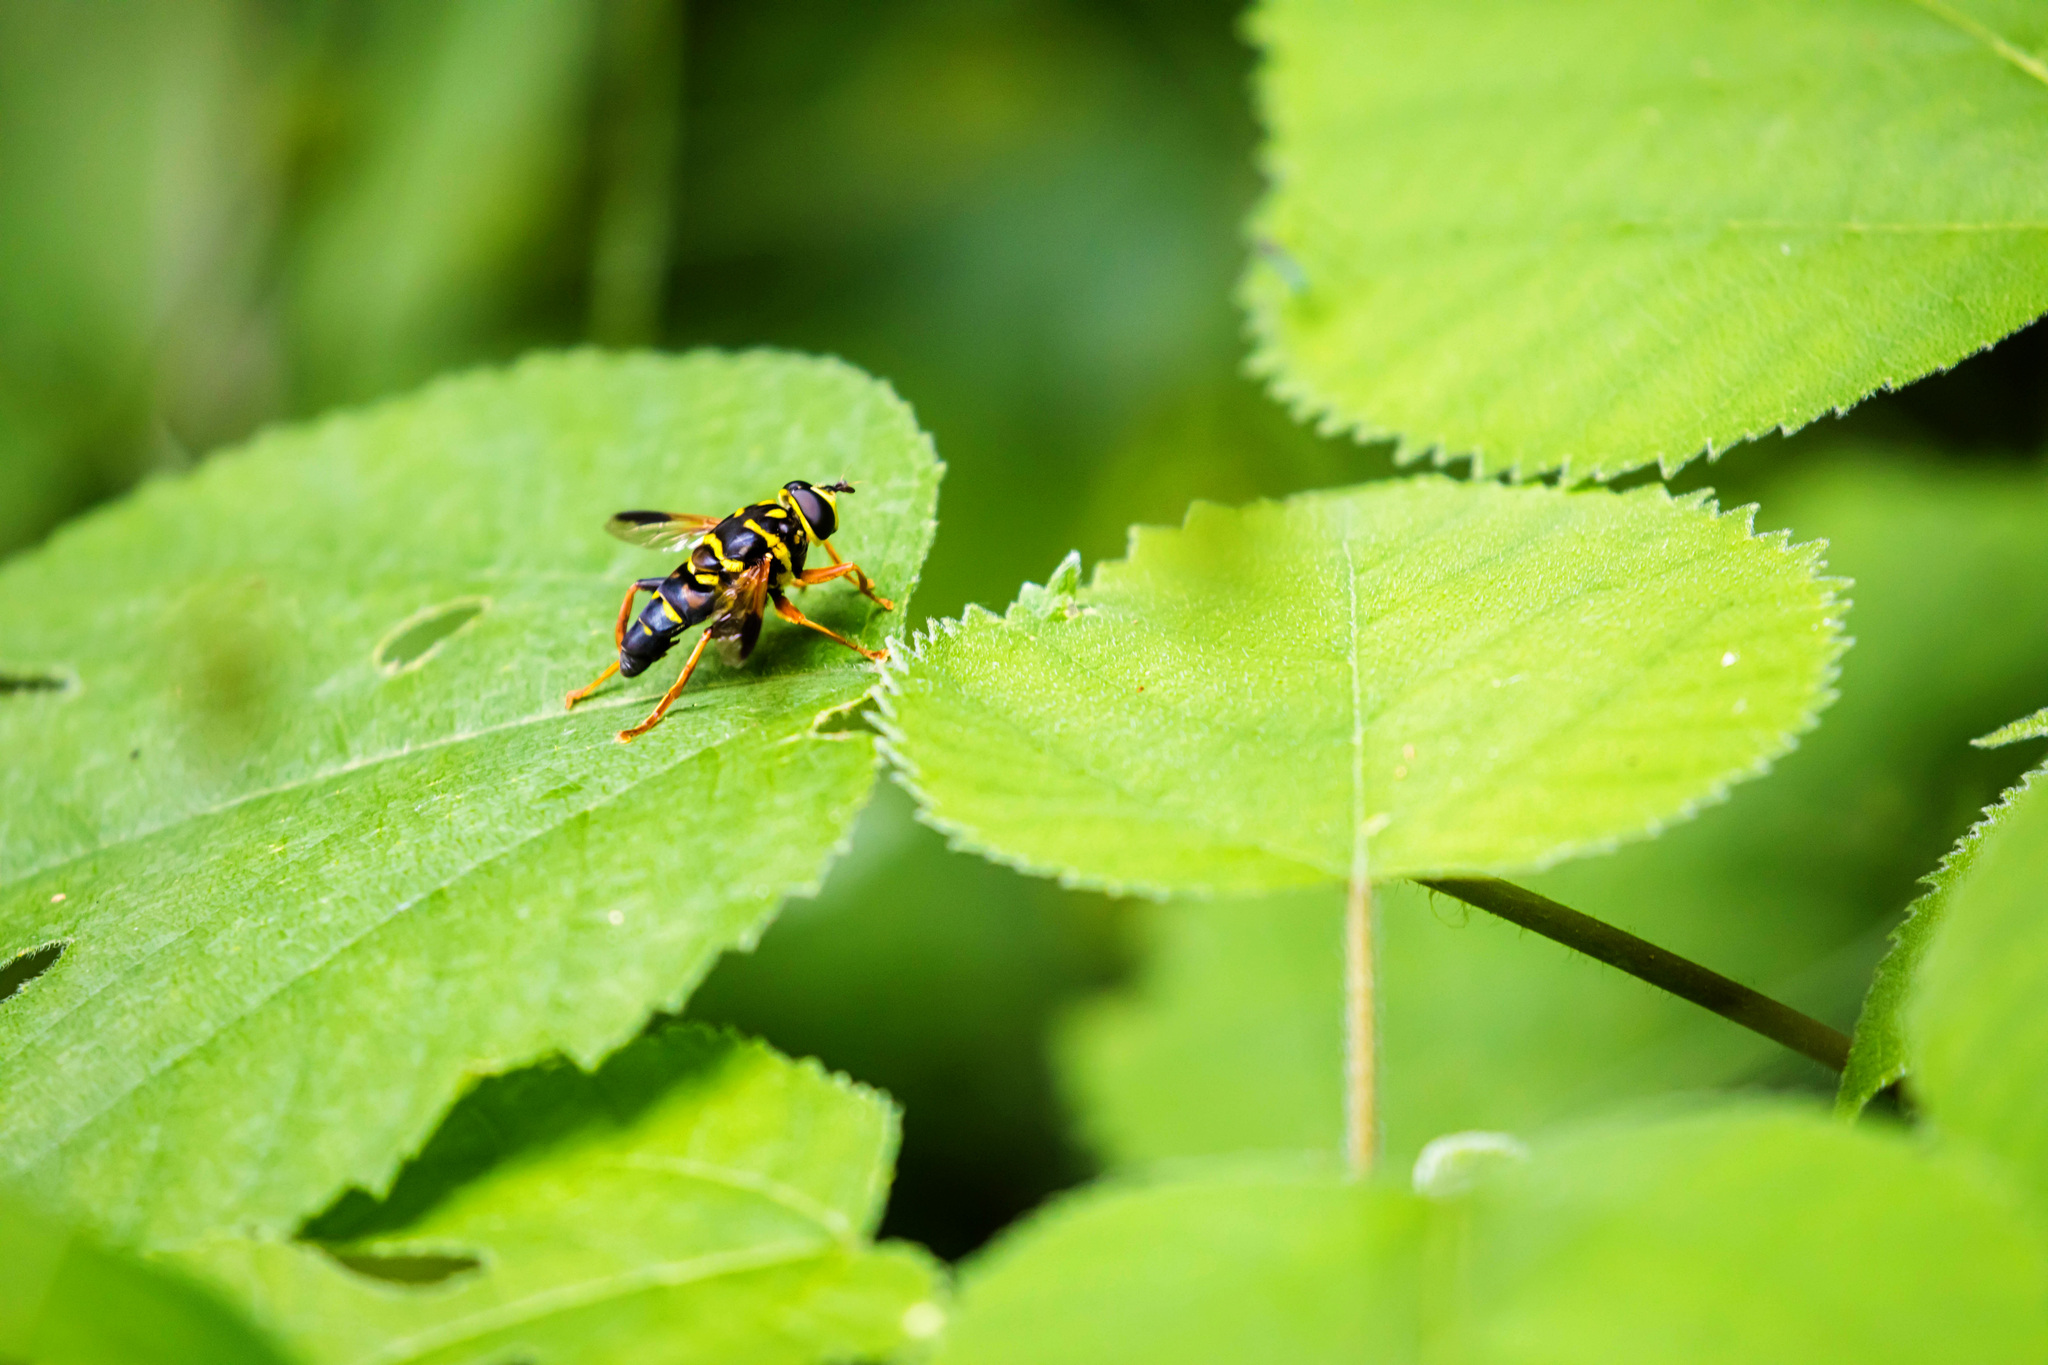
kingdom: Animalia
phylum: Arthropoda
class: Insecta
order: Diptera
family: Syrphidae
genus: Meromacrus
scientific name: Meromacrus acutus
